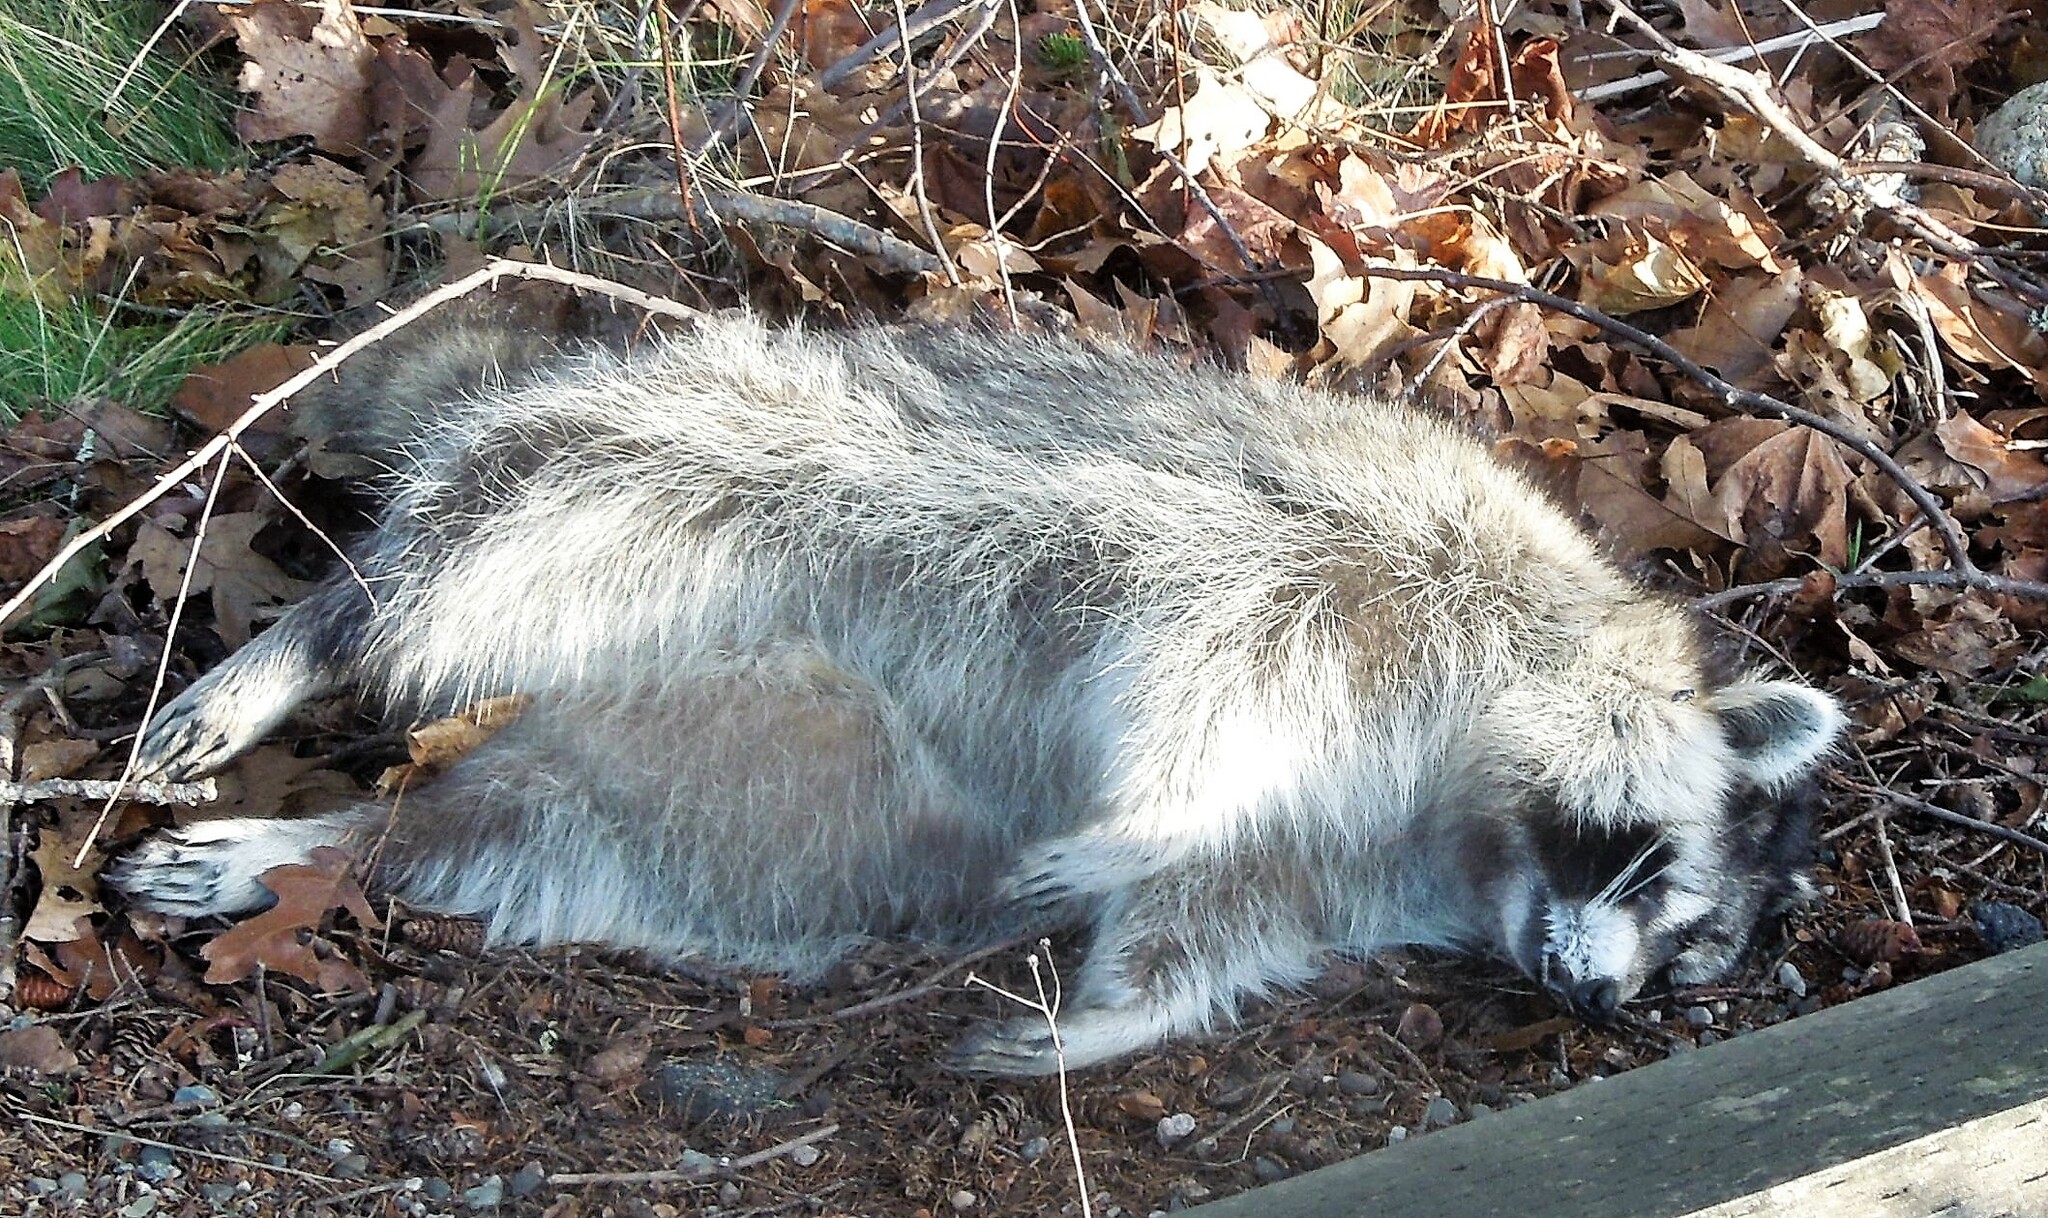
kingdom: Animalia
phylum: Chordata
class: Mammalia
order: Carnivora
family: Procyonidae
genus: Procyon
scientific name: Procyon lotor
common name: Raccoon
